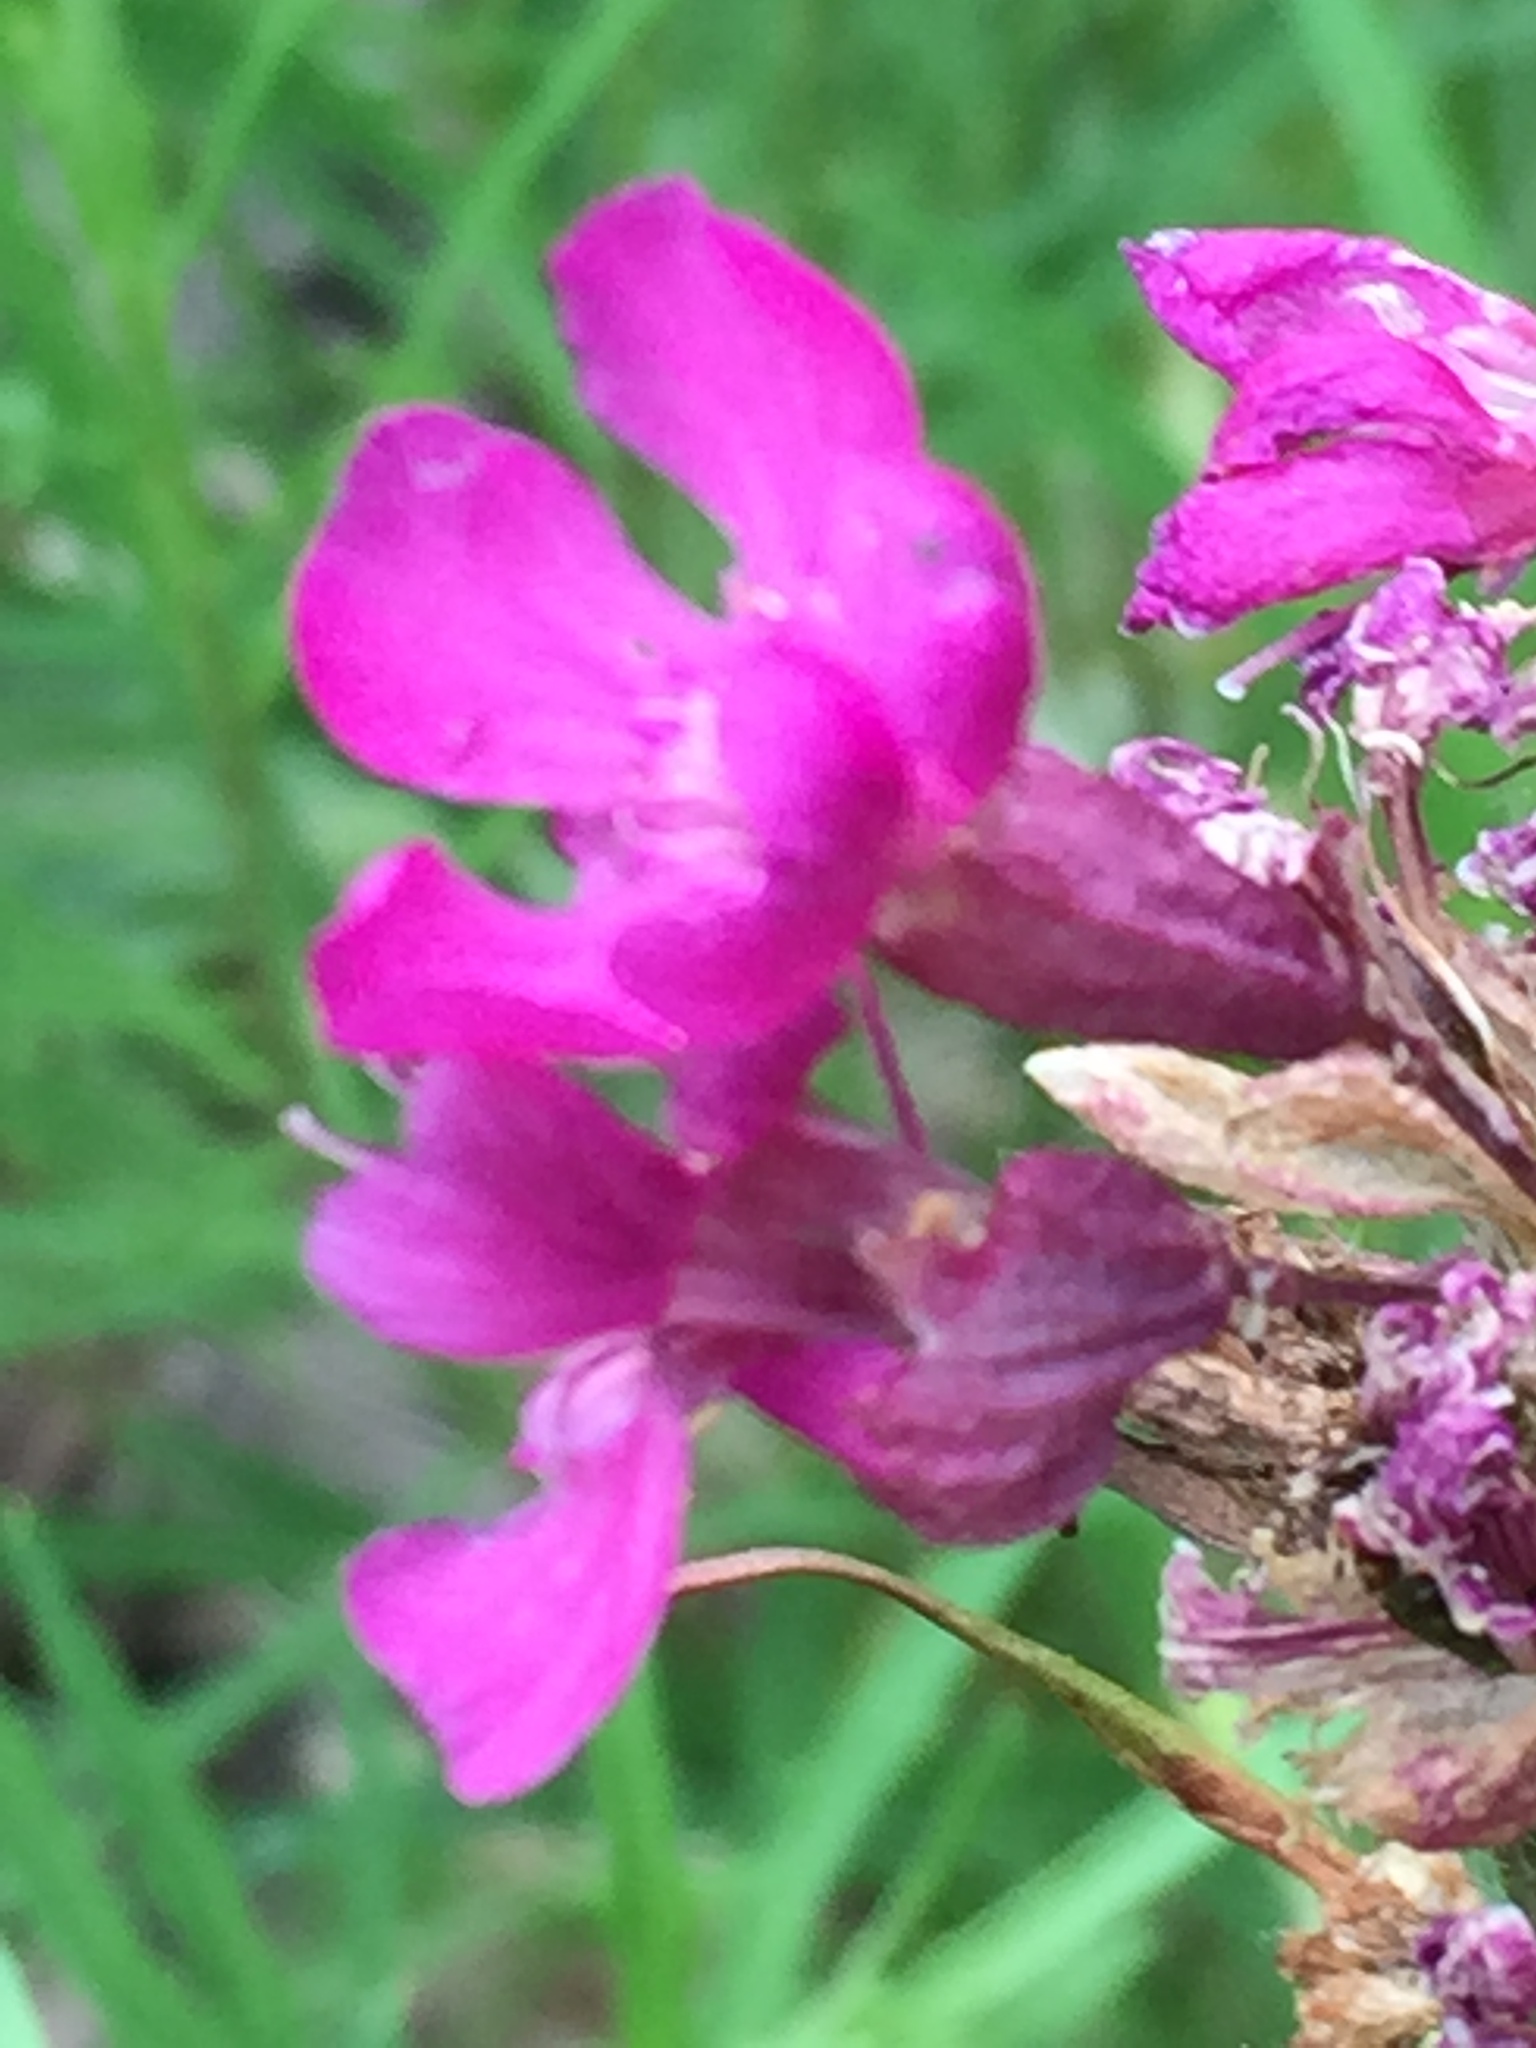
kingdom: Plantae
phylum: Tracheophyta
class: Magnoliopsida
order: Caryophyllales
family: Caryophyllaceae
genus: Viscaria
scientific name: Viscaria vulgaris
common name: Clammy campion
